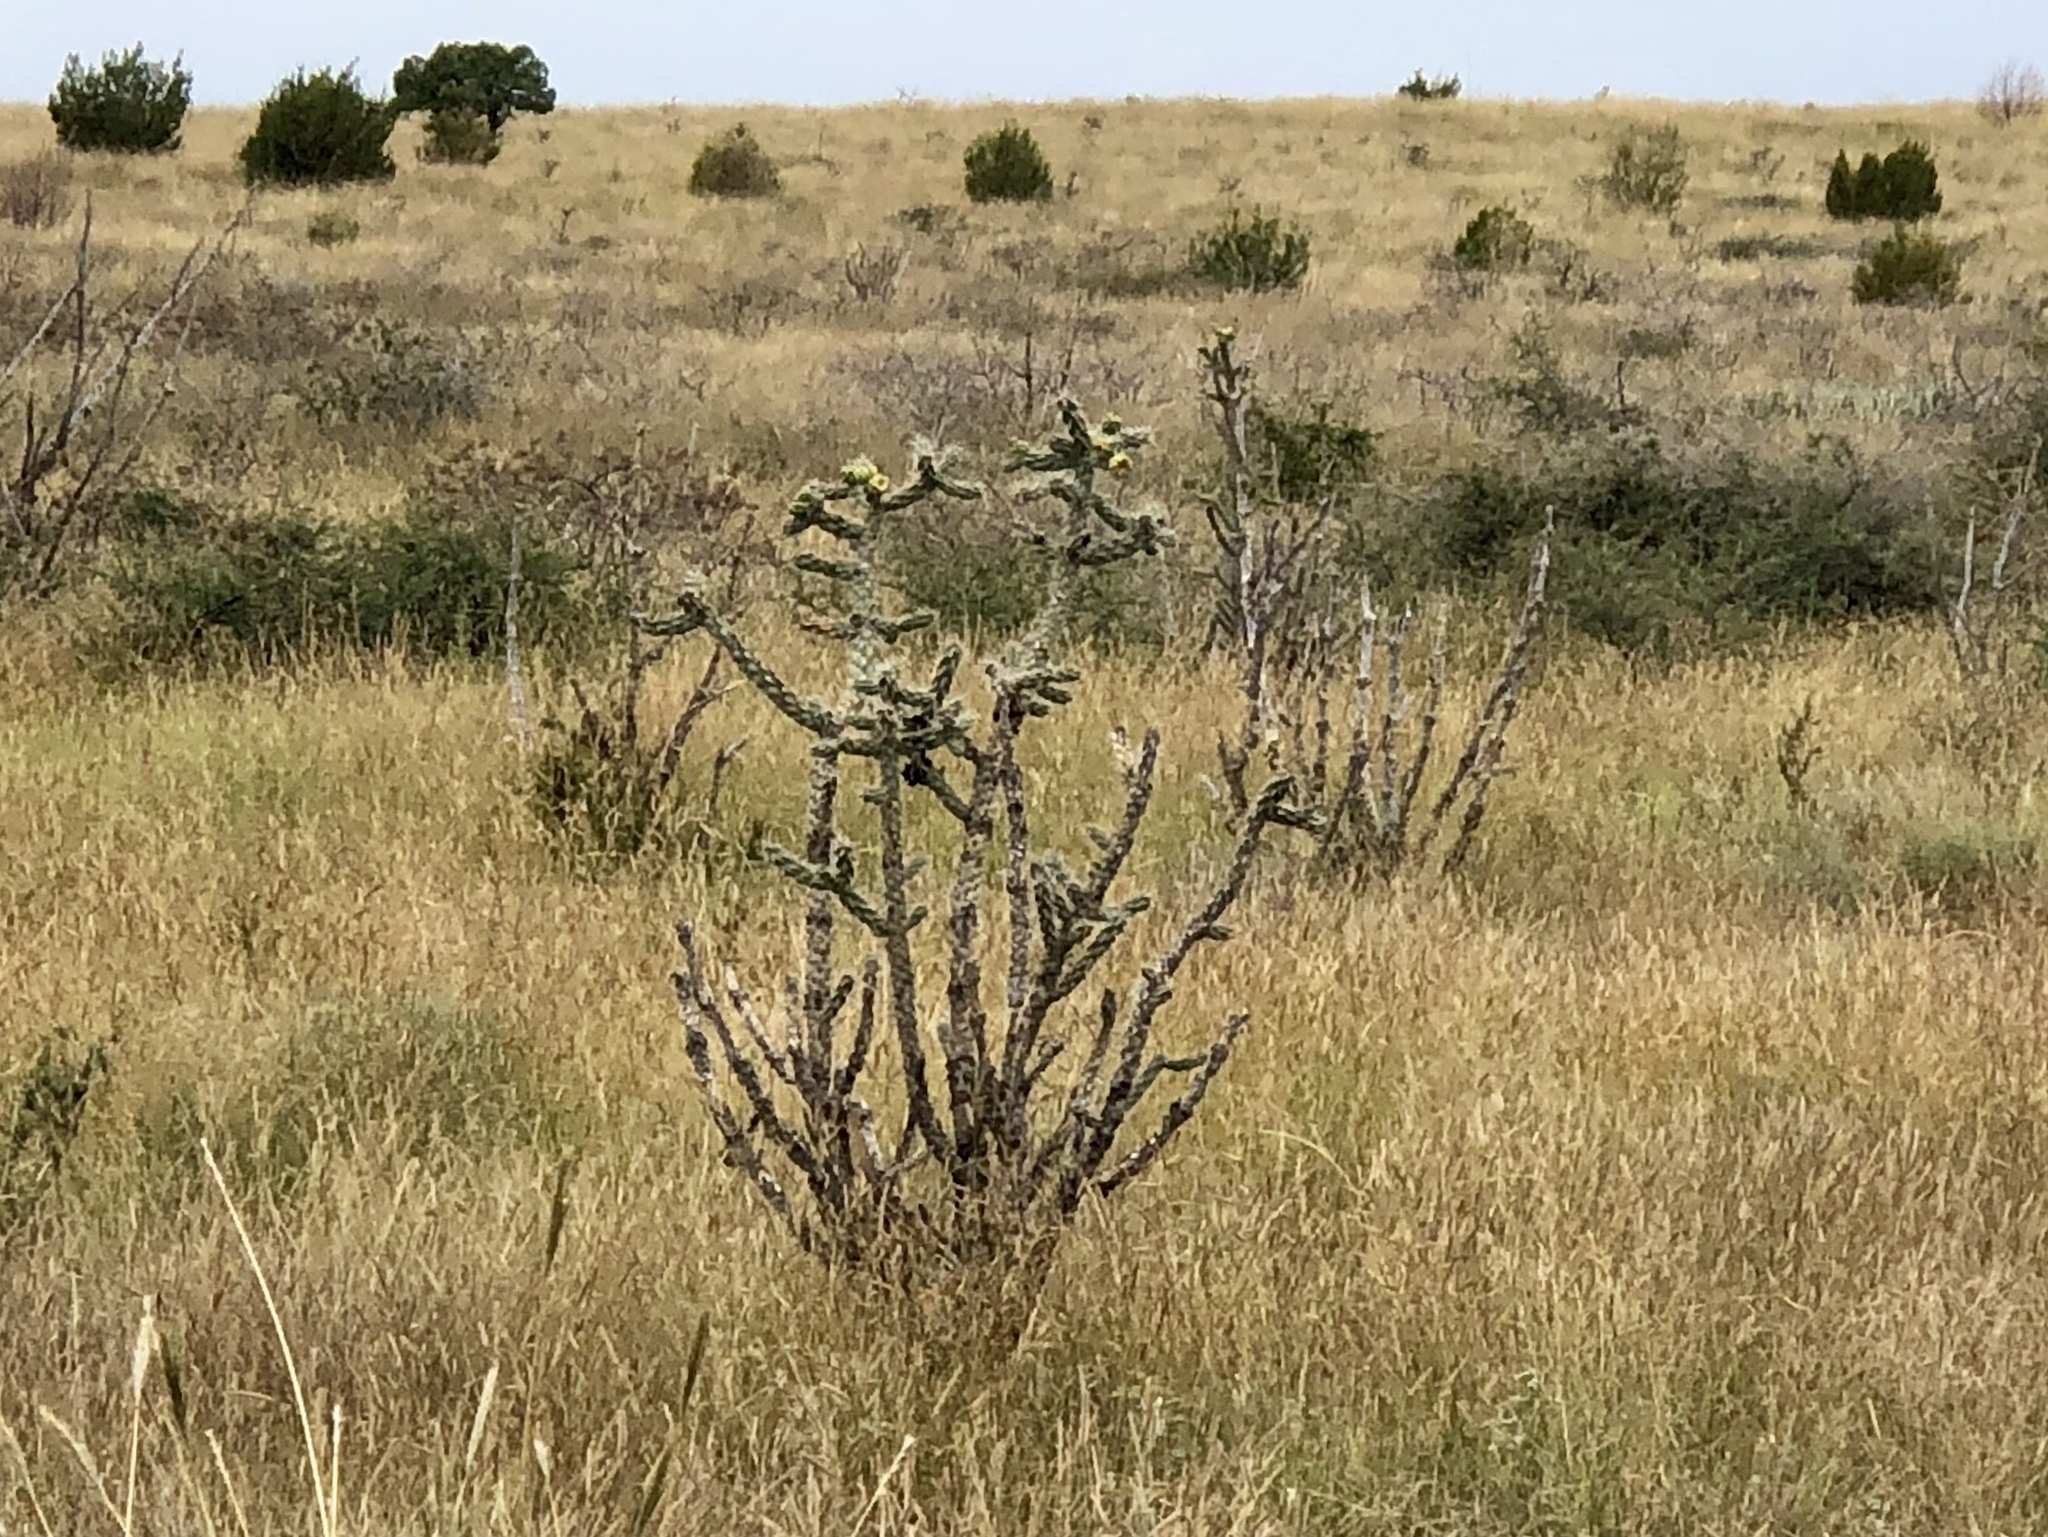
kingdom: Plantae
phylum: Tracheophyta
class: Magnoliopsida
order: Caryophyllales
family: Cactaceae
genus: Cylindropuntia
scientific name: Cylindropuntia imbricata
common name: Candelabrum cactus
